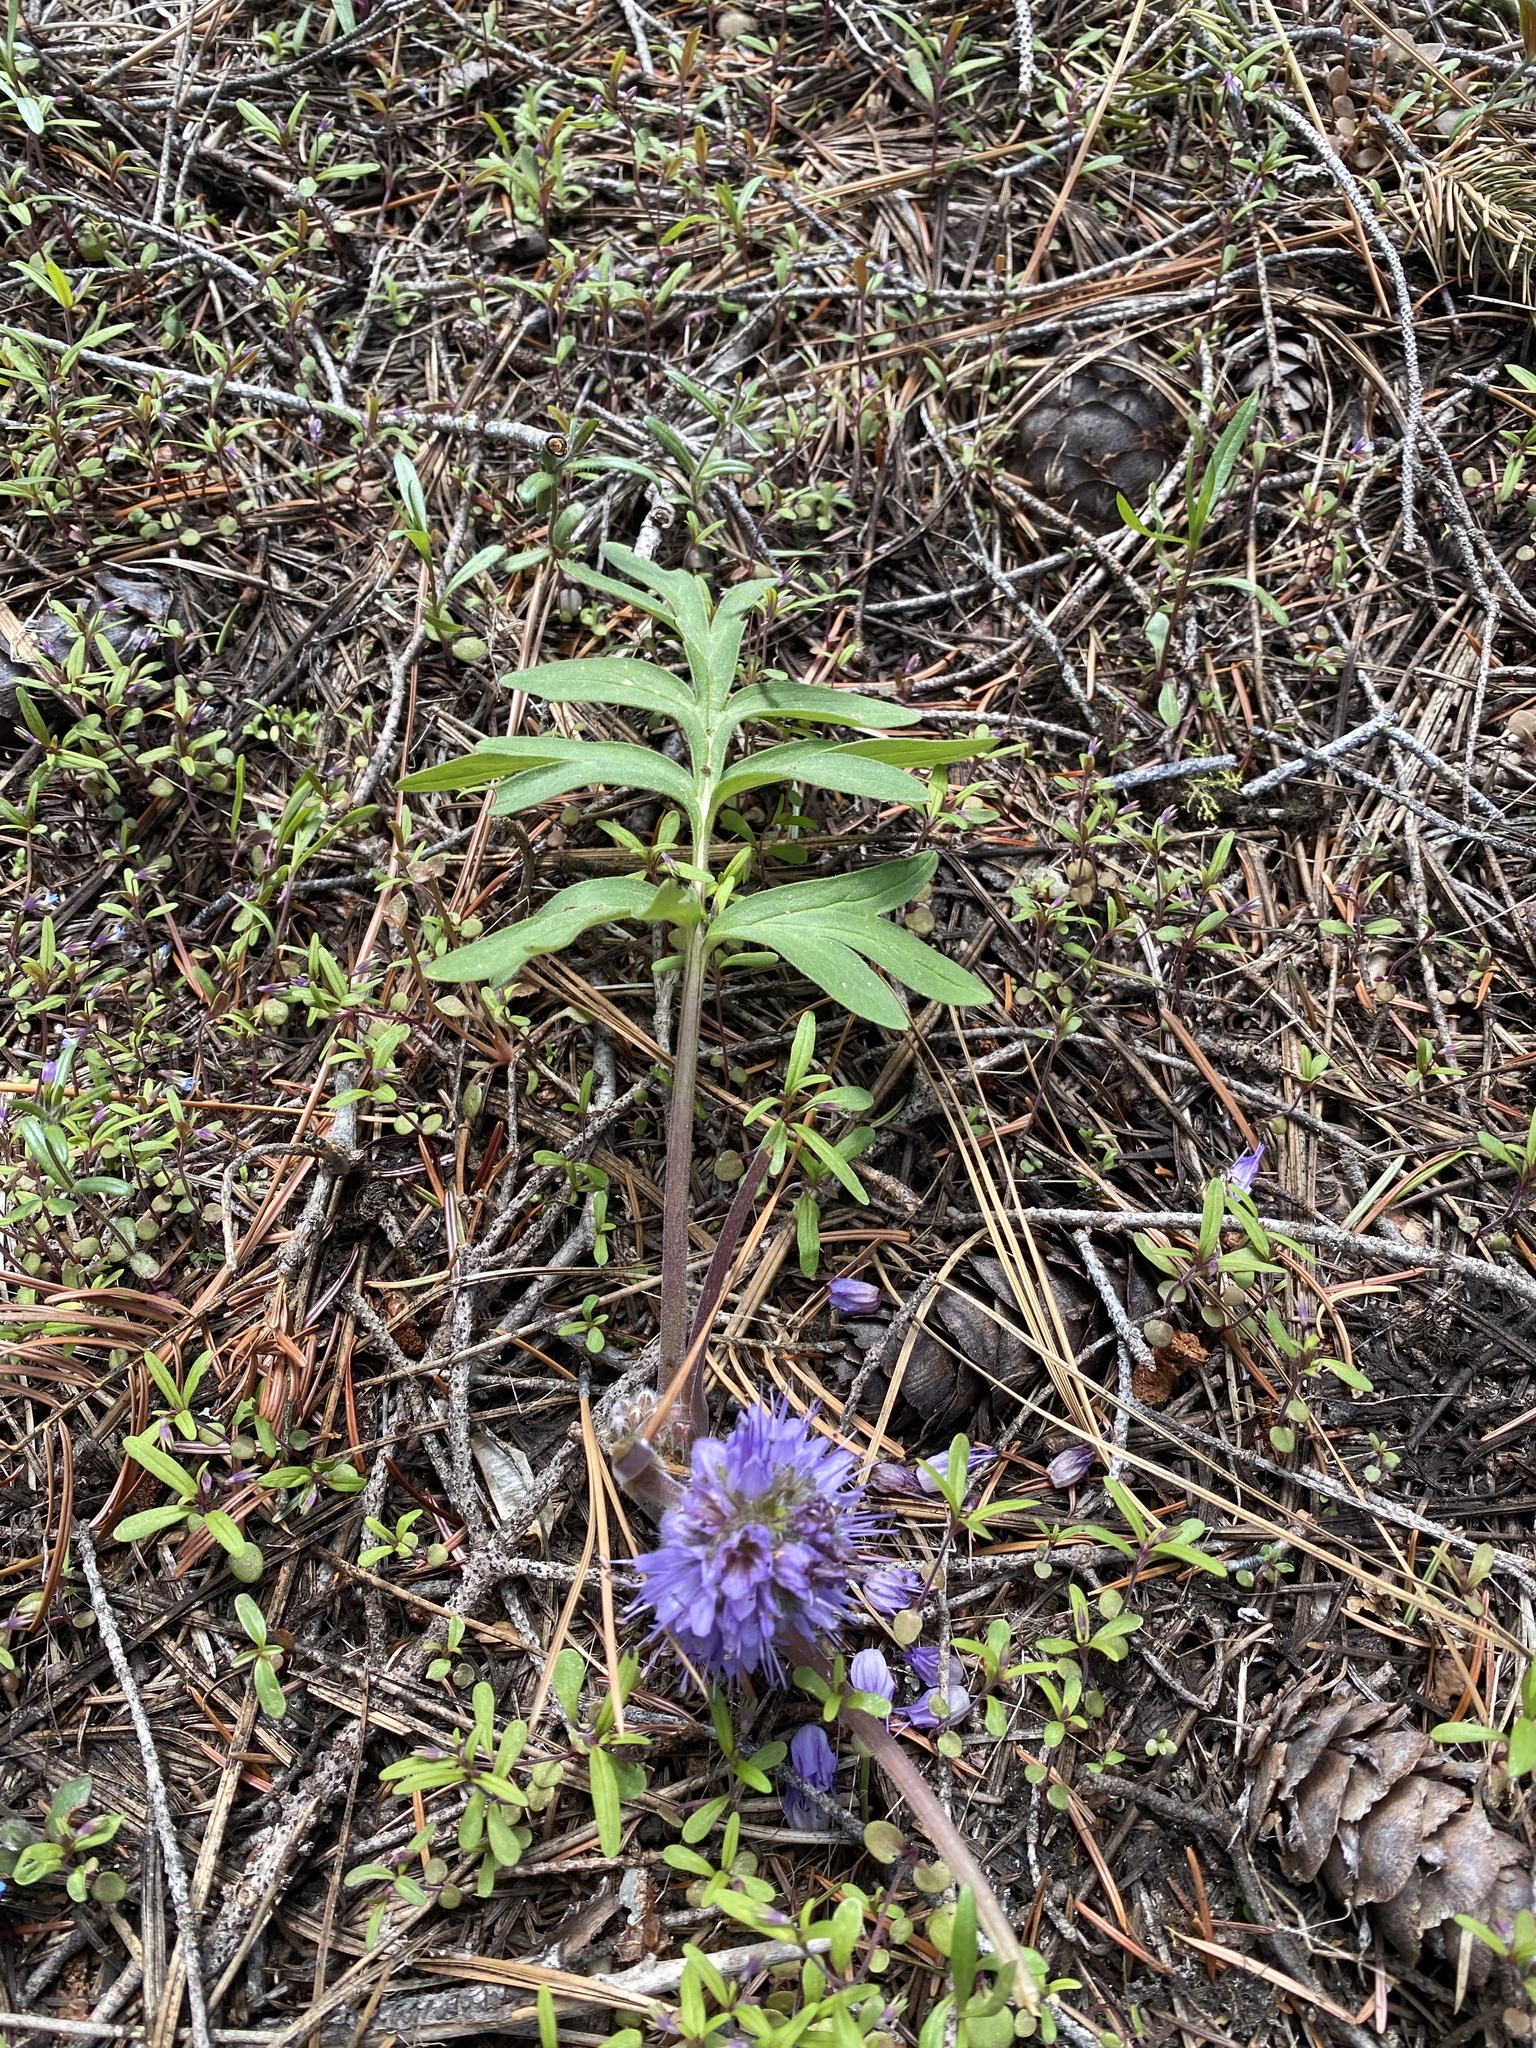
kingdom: Plantae
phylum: Tracheophyta
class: Magnoliopsida
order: Boraginales
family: Hydrophyllaceae
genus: Hydrophyllum
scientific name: Hydrophyllum capitatum
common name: Woollen-breeches
